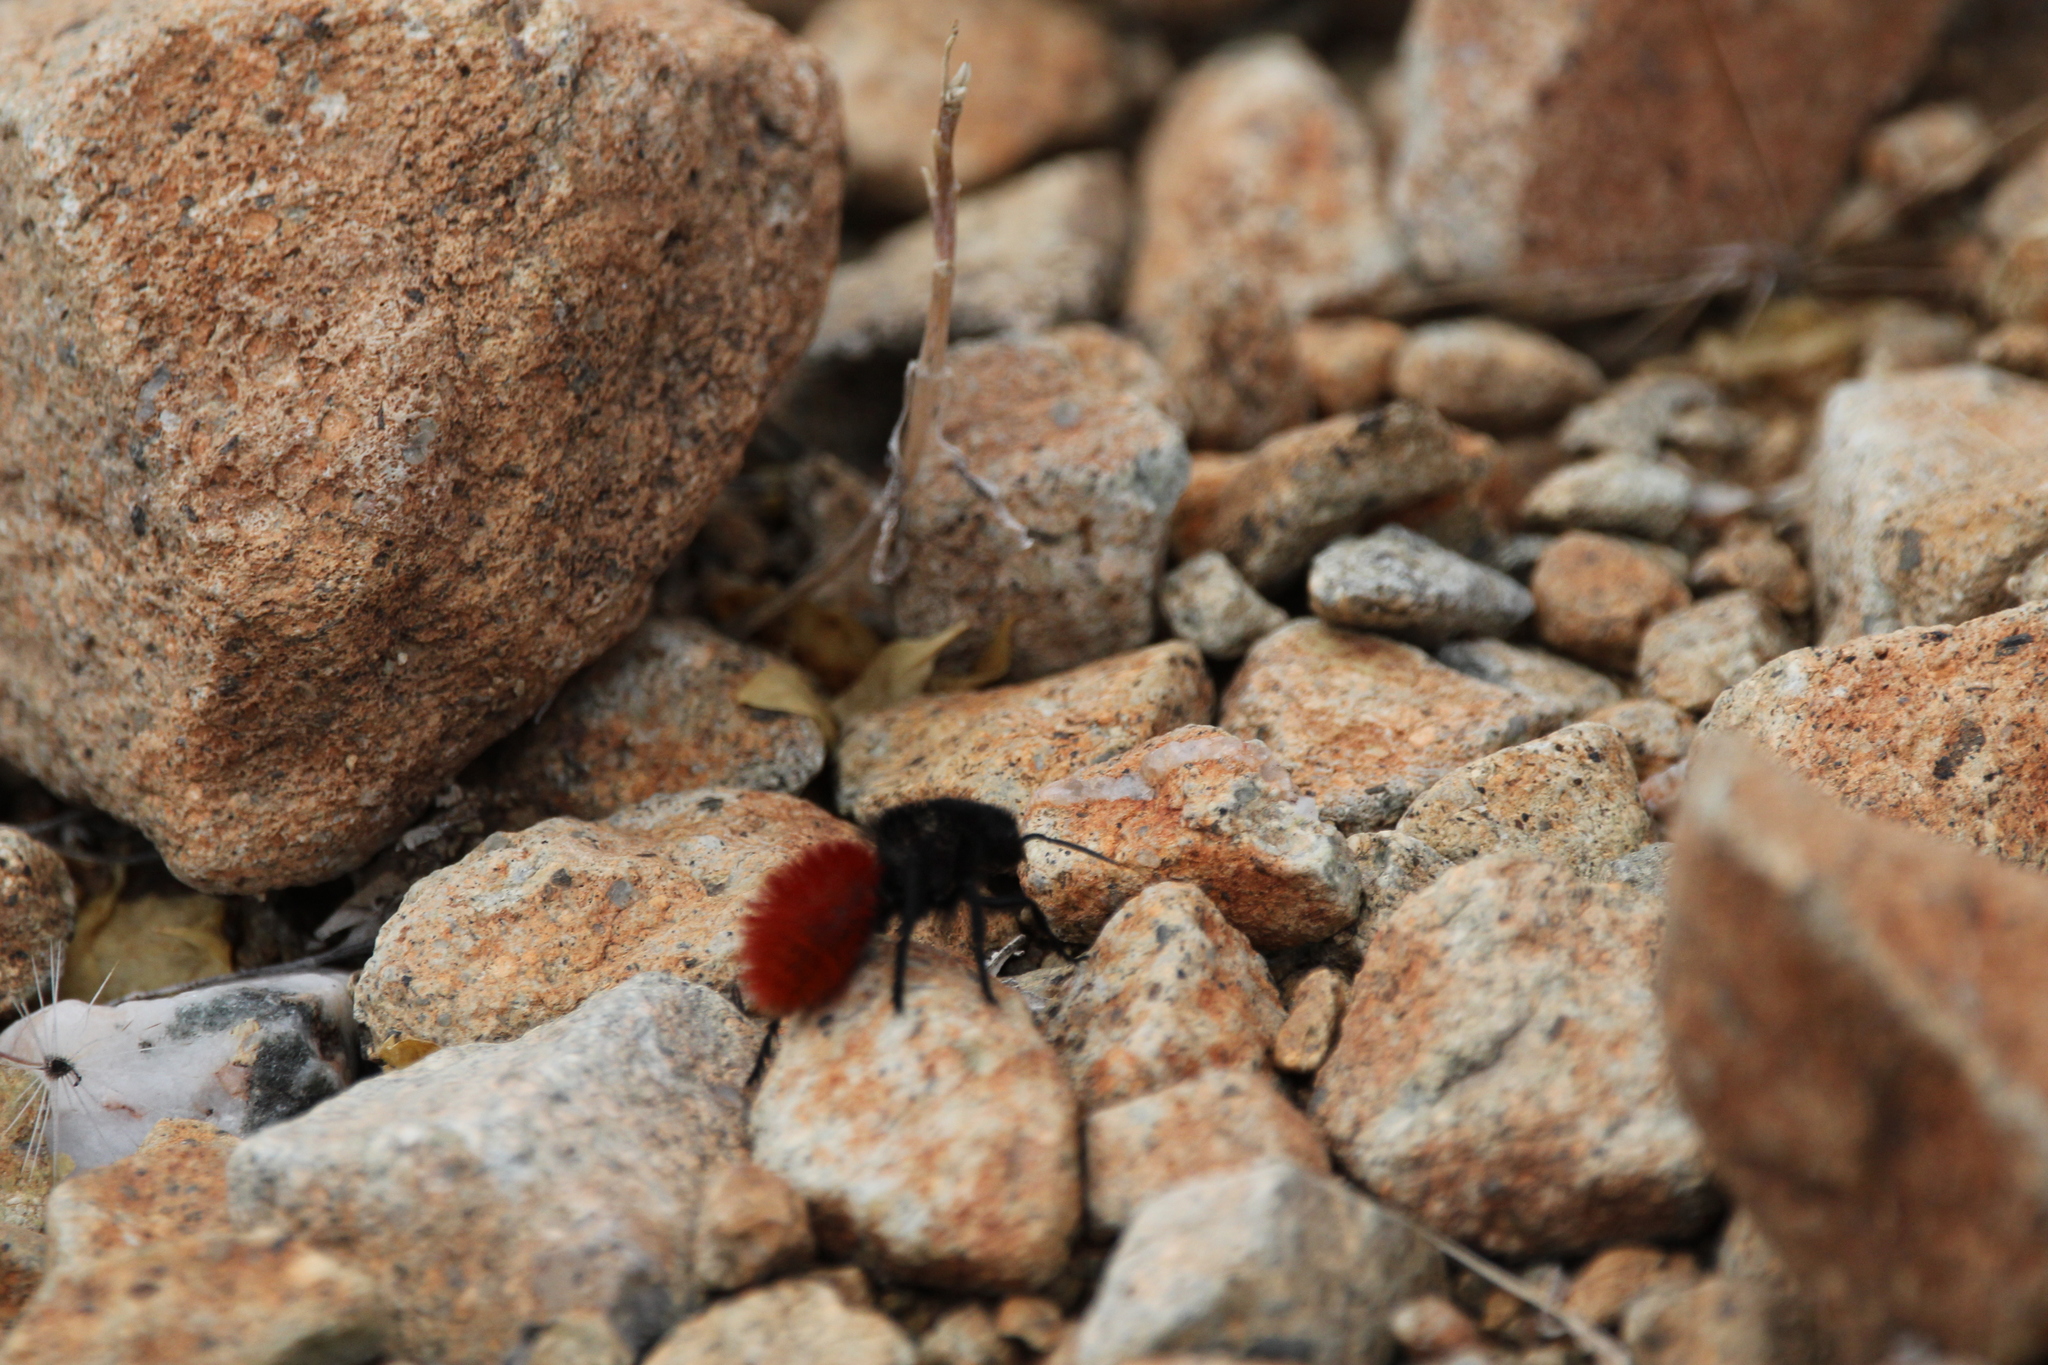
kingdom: Animalia
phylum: Arthropoda
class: Insecta
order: Hymenoptera
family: Mutillidae
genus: Dasymutilla
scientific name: Dasymutilla magnifica
